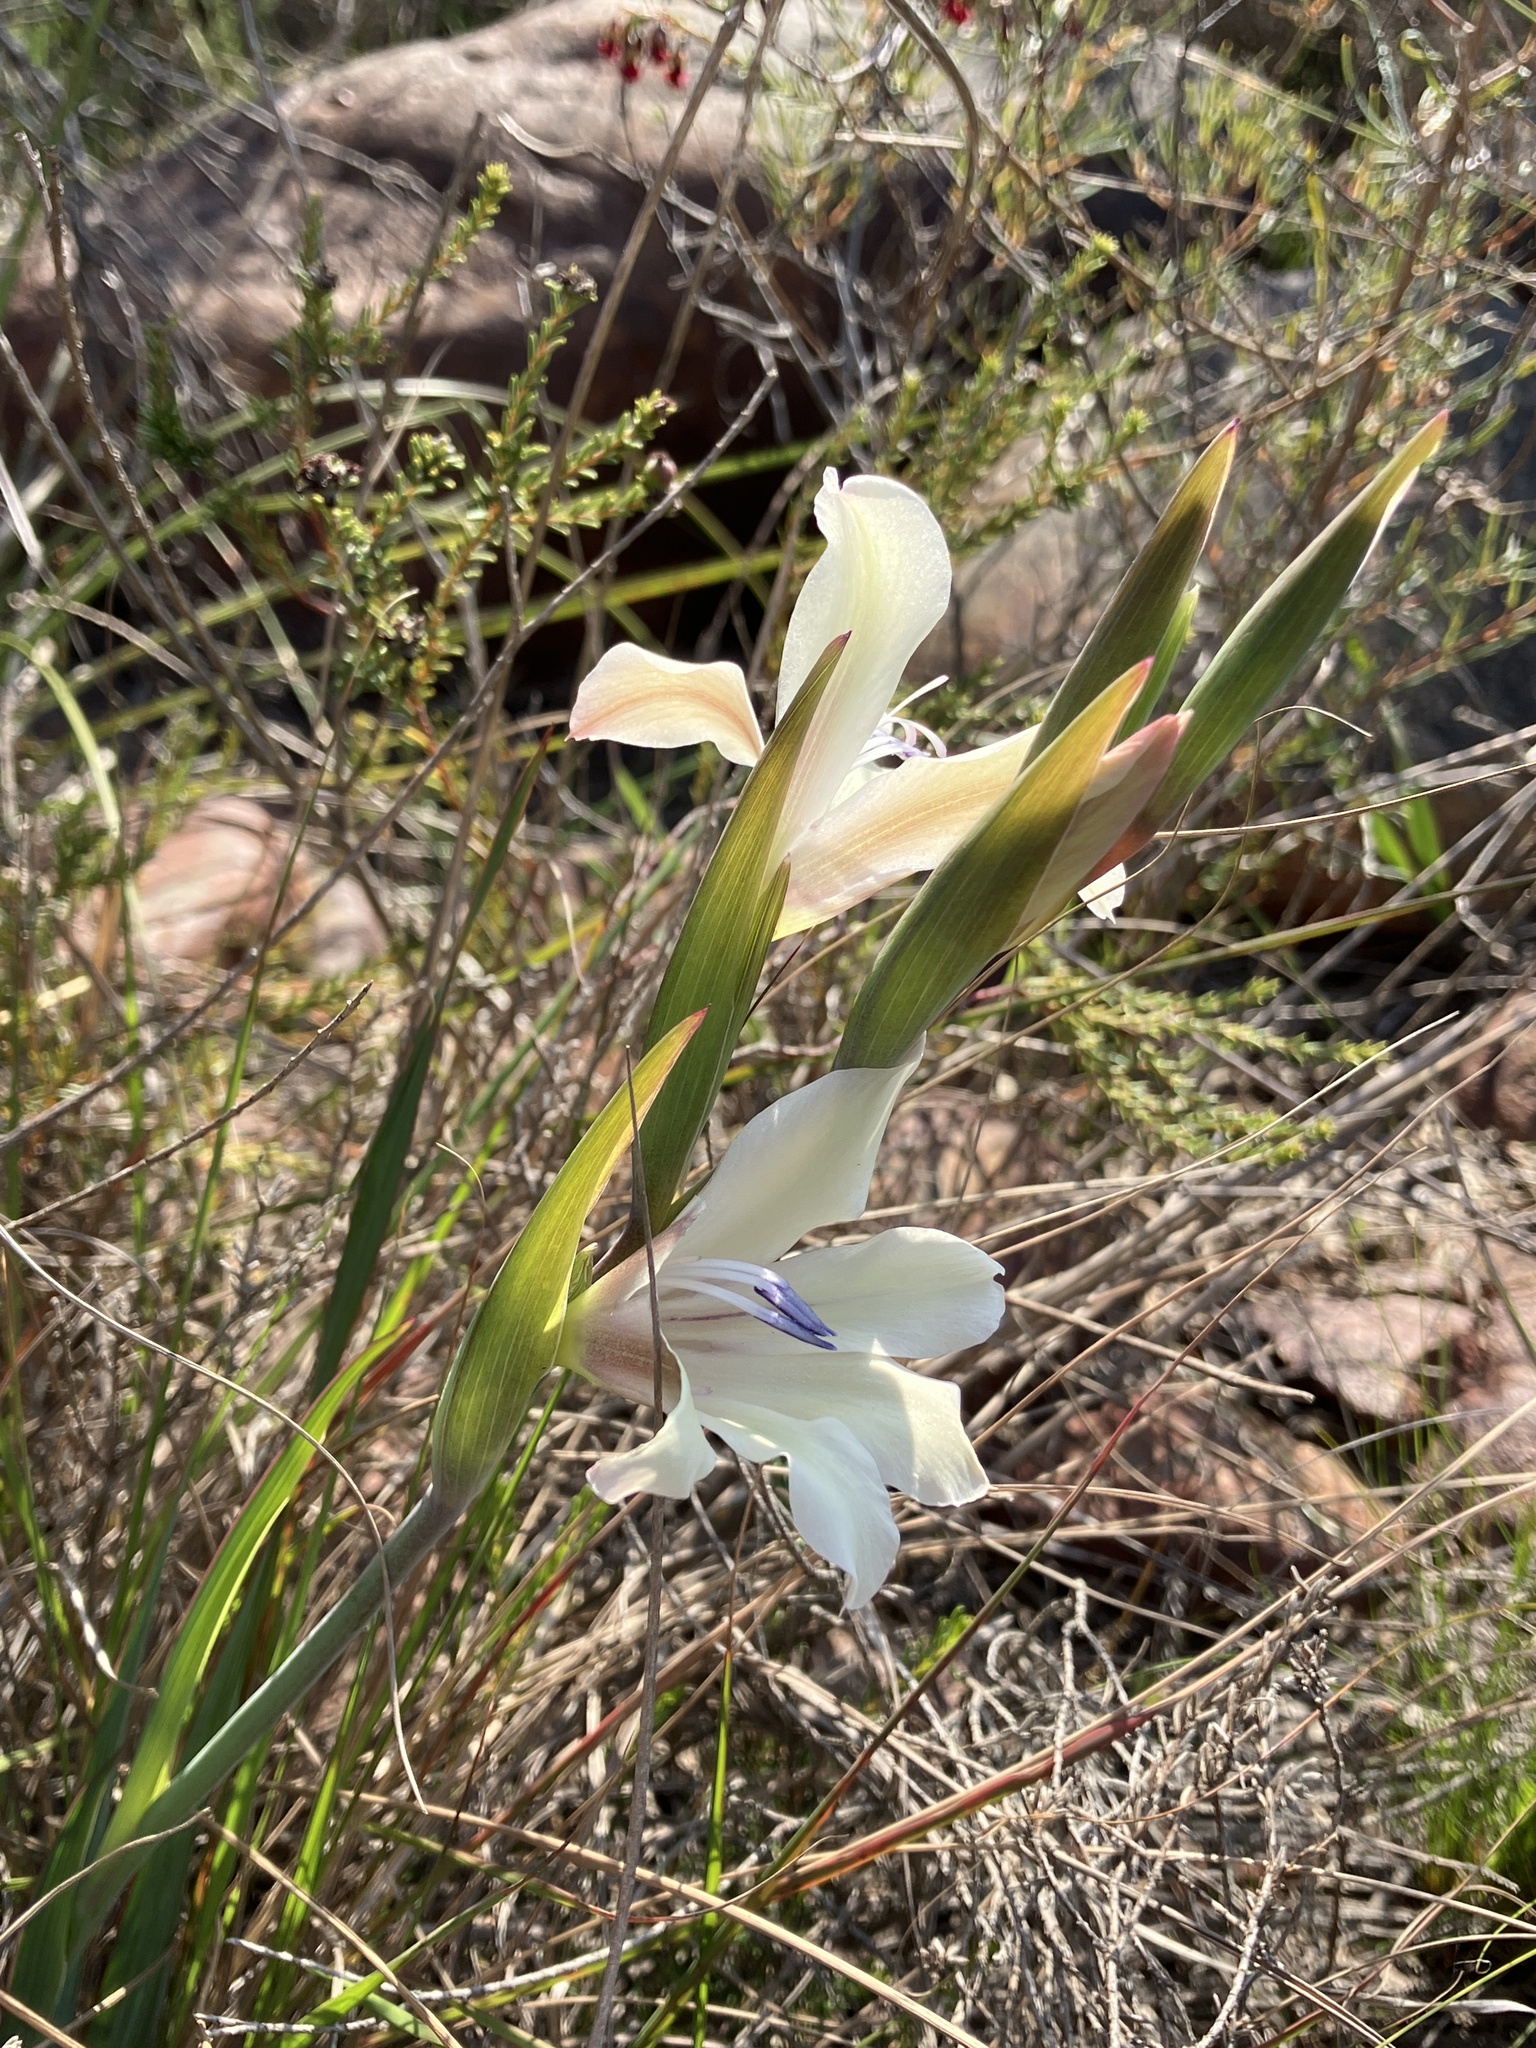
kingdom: Plantae
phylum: Tracheophyta
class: Liliopsida
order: Asparagales
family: Iridaceae
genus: Gladiolus
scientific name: Gladiolus floribundus
